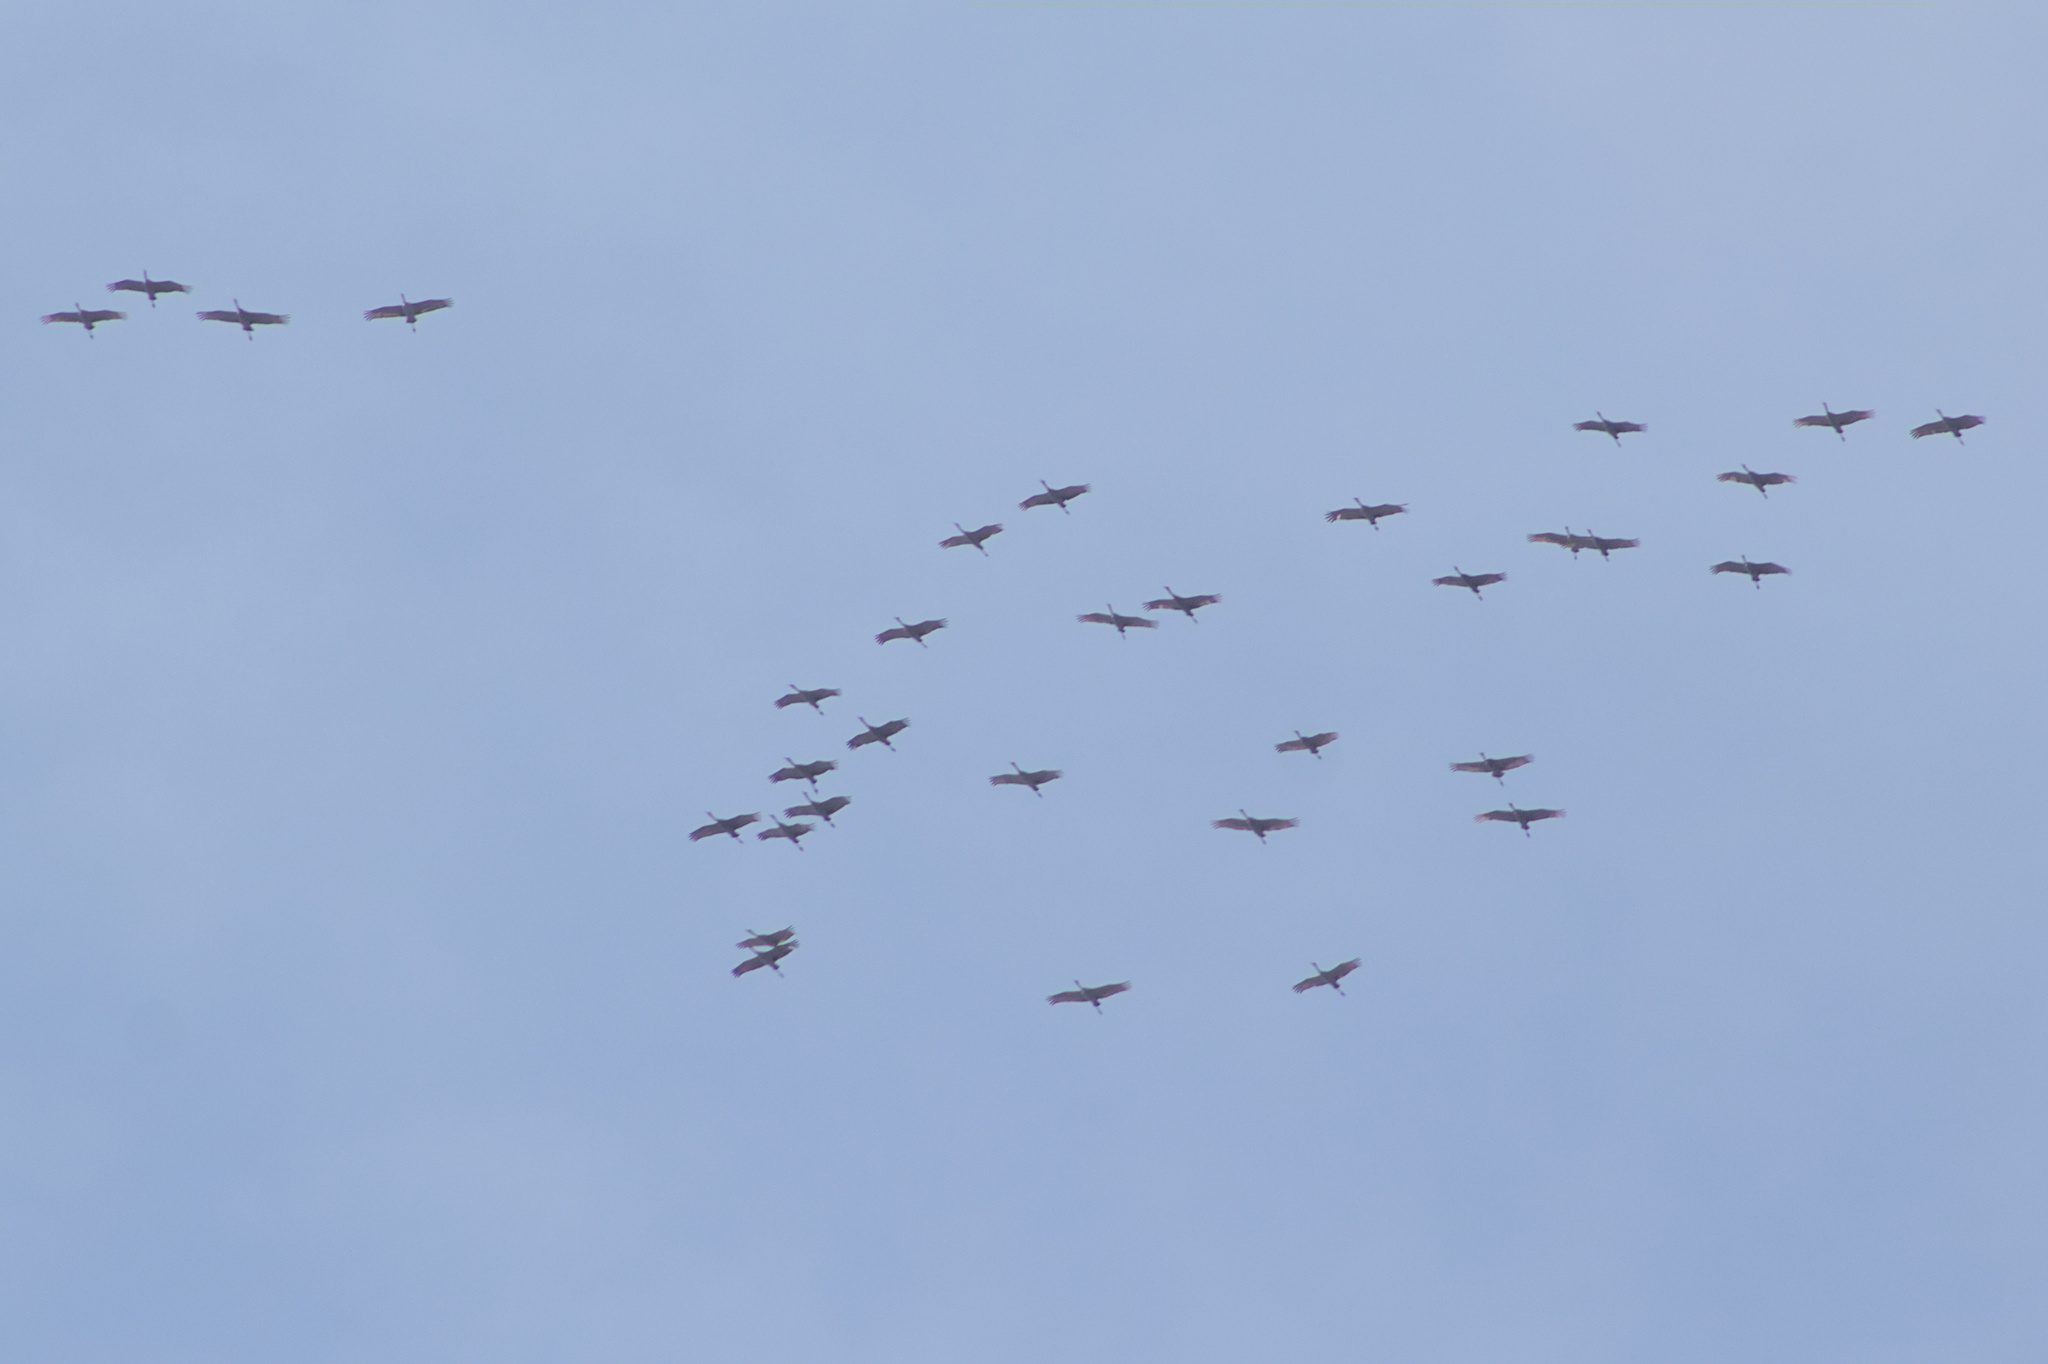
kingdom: Animalia
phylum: Chordata
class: Aves
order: Gruiformes
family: Gruidae
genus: Grus
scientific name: Grus canadensis
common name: Sandhill crane
